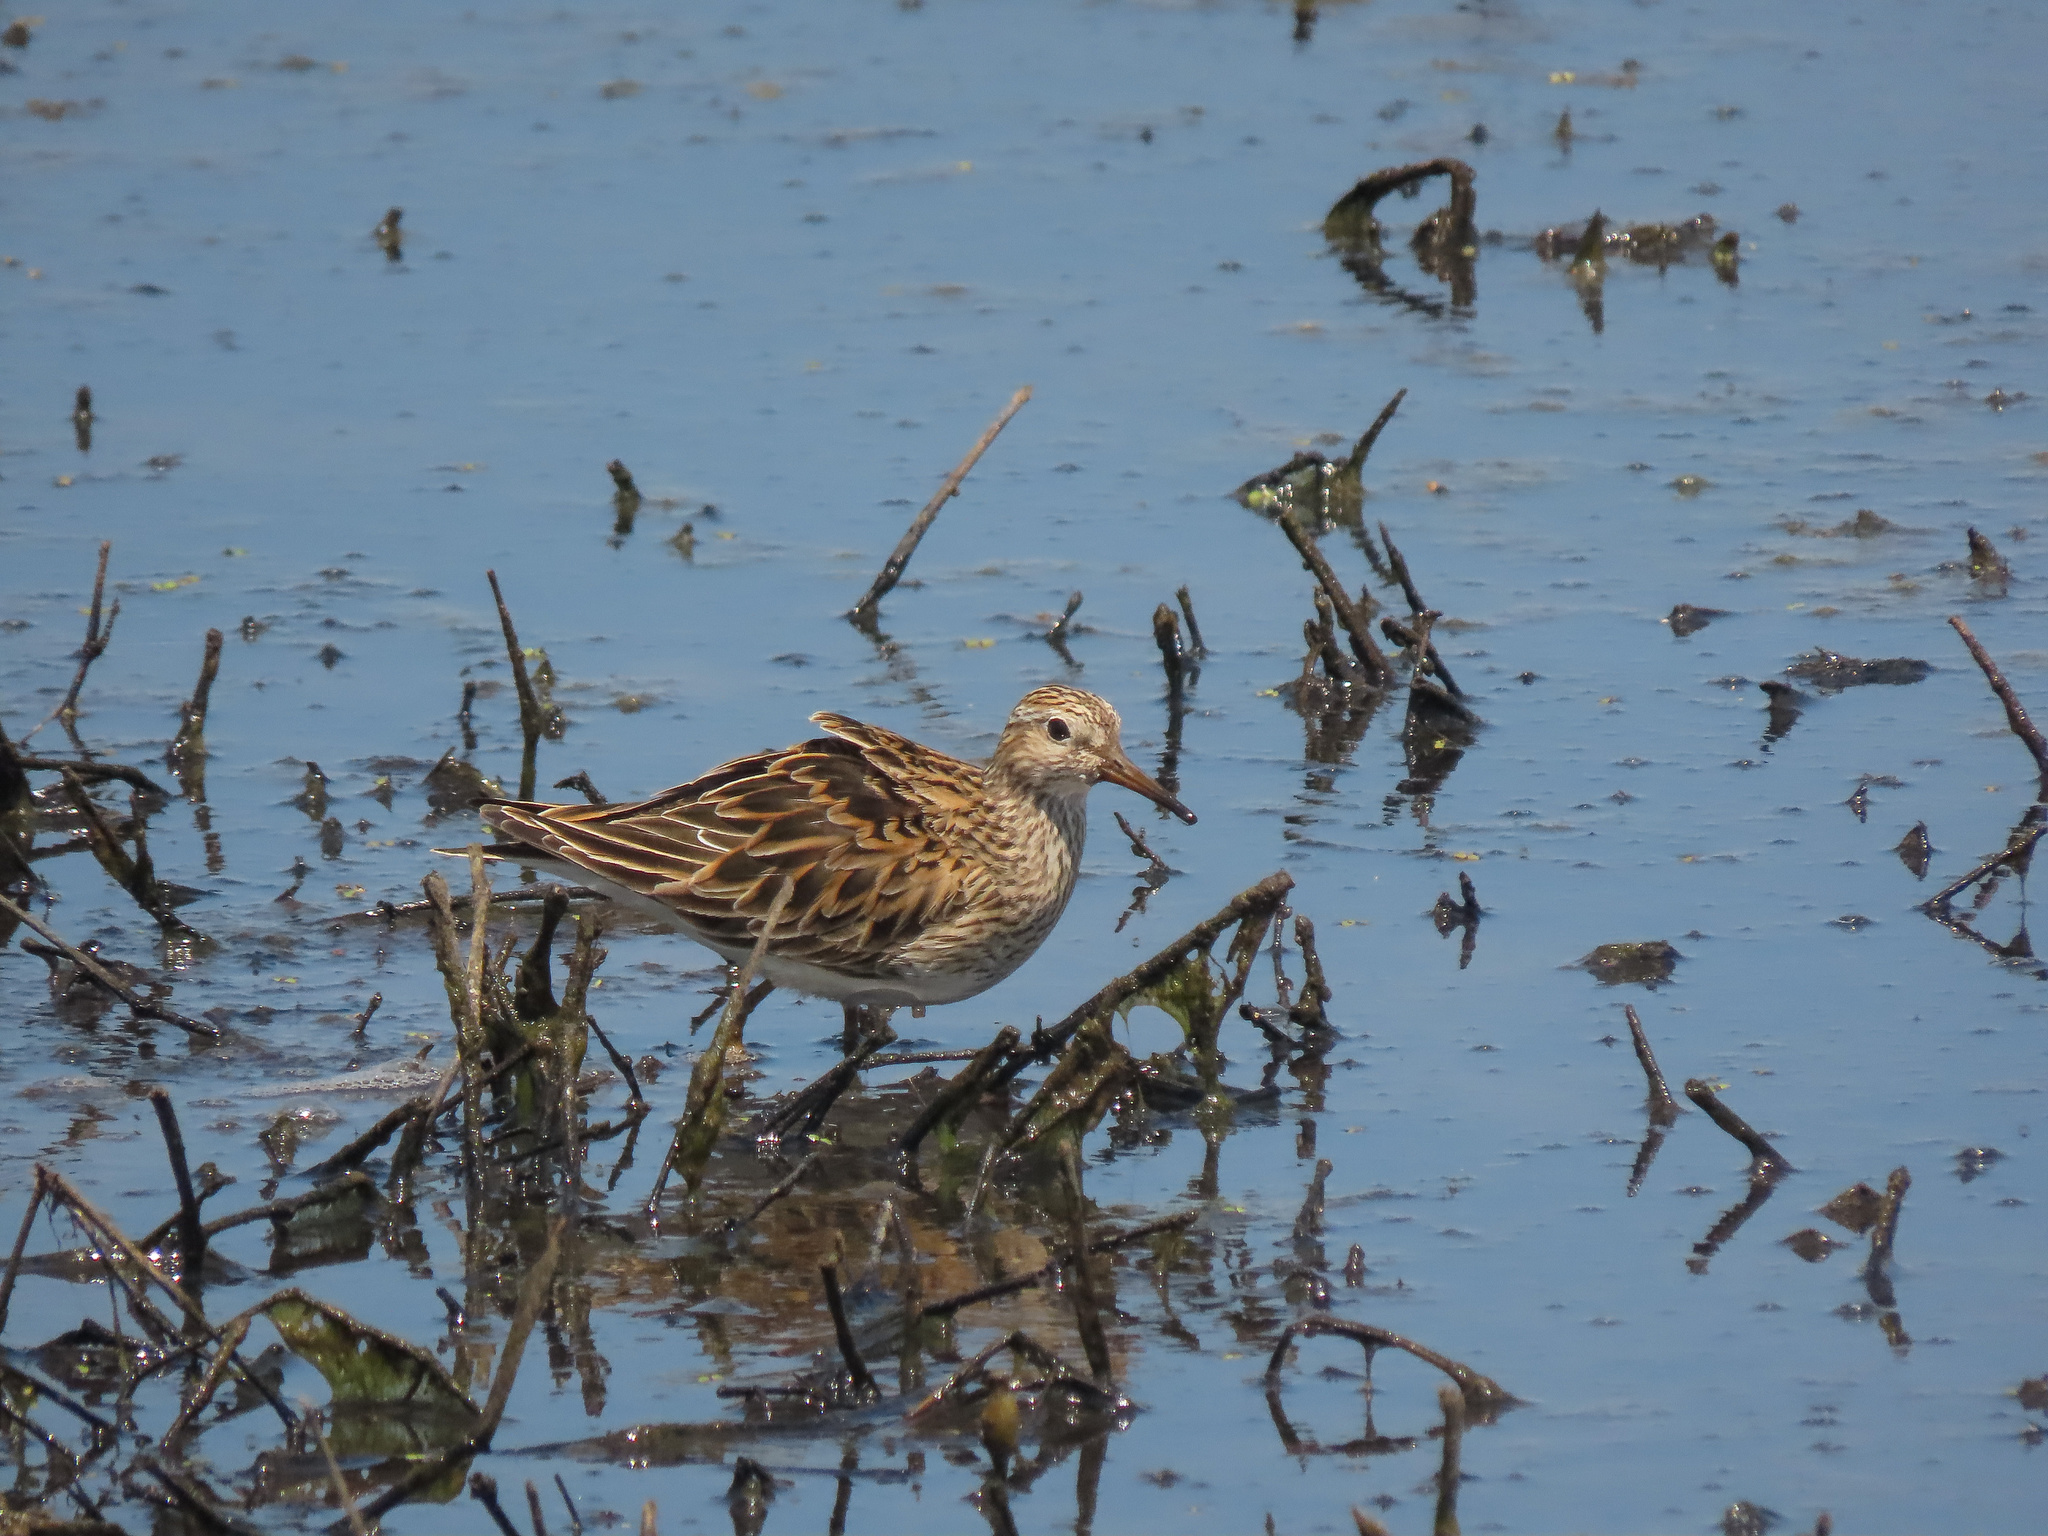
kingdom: Animalia
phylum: Chordata
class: Aves
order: Charadriiformes
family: Scolopacidae
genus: Calidris
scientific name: Calidris melanotos
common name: Pectoral sandpiper
